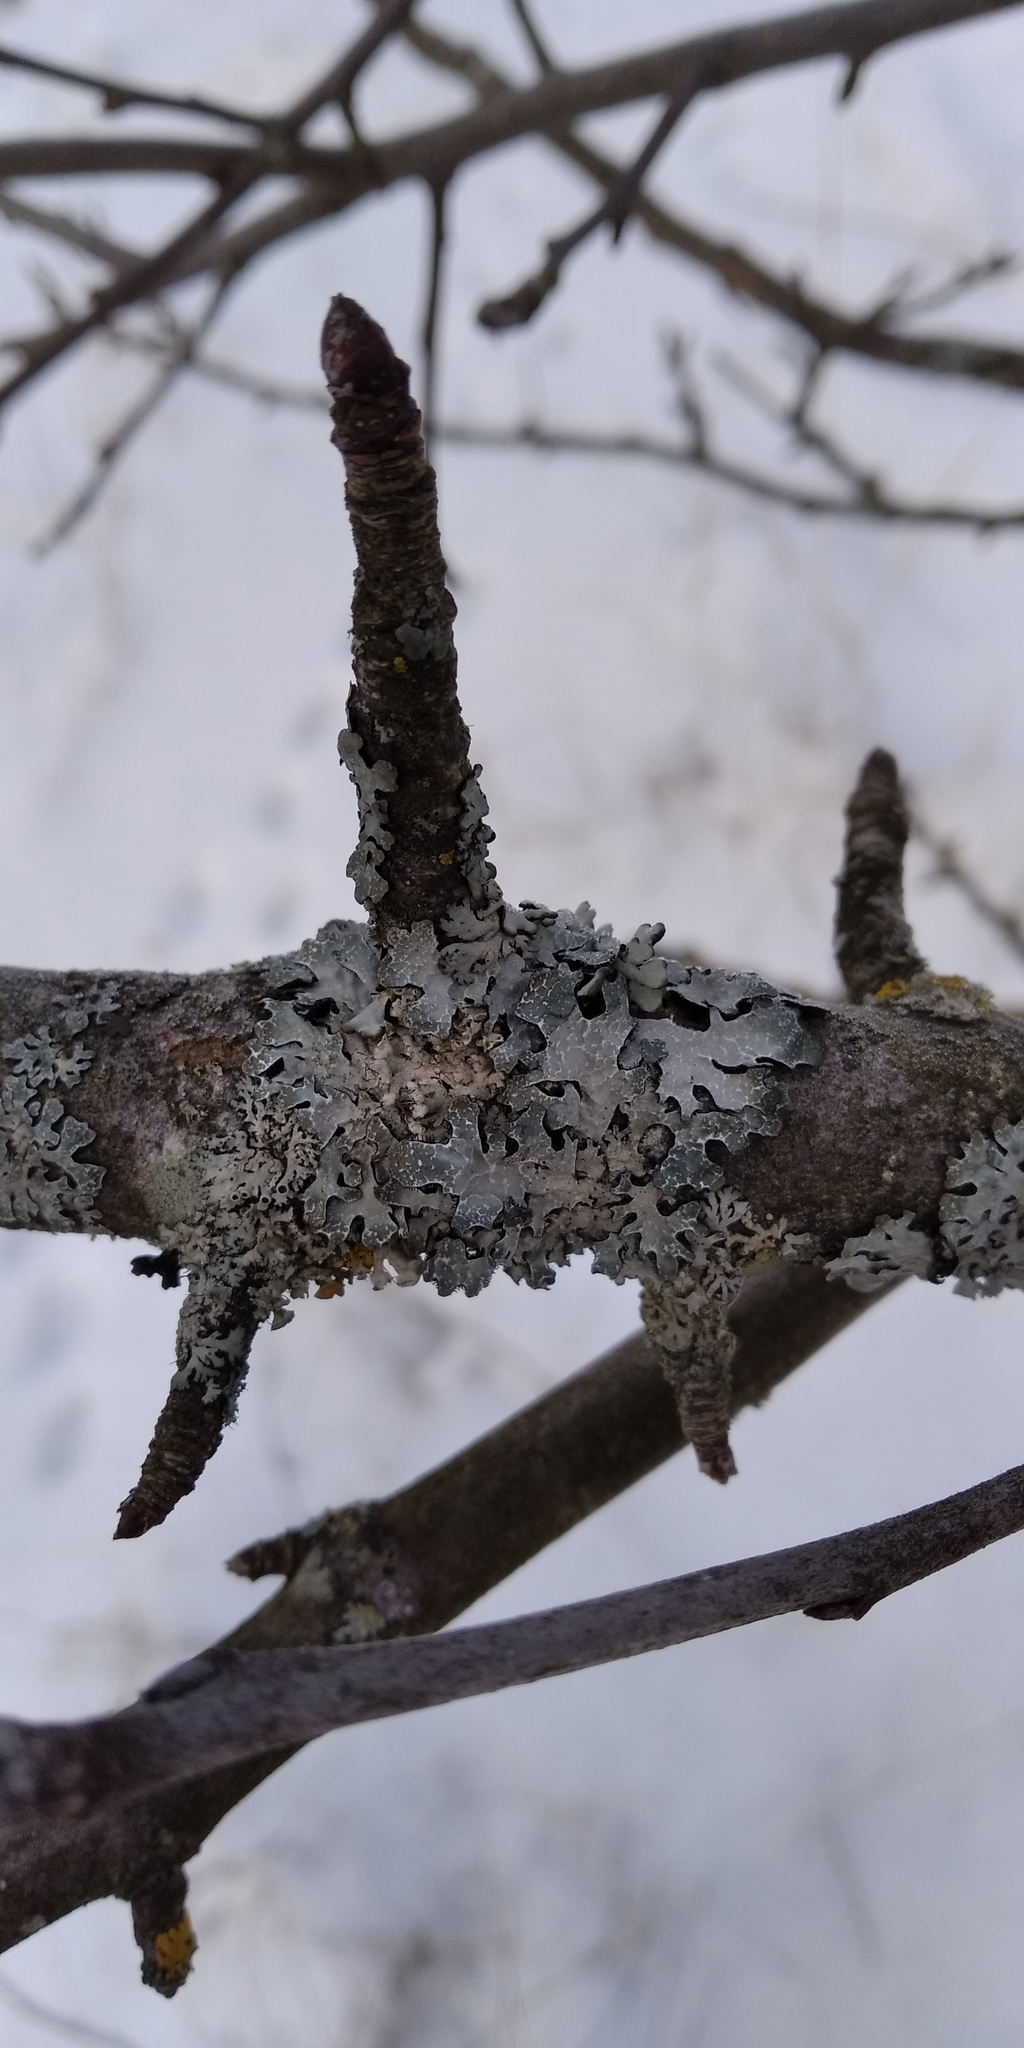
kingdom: Fungi
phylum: Ascomycota
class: Lecanoromycetes
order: Lecanorales
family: Parmeliaceae
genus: Parmelia
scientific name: Parmelia sulcata
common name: Netted shield lichen
